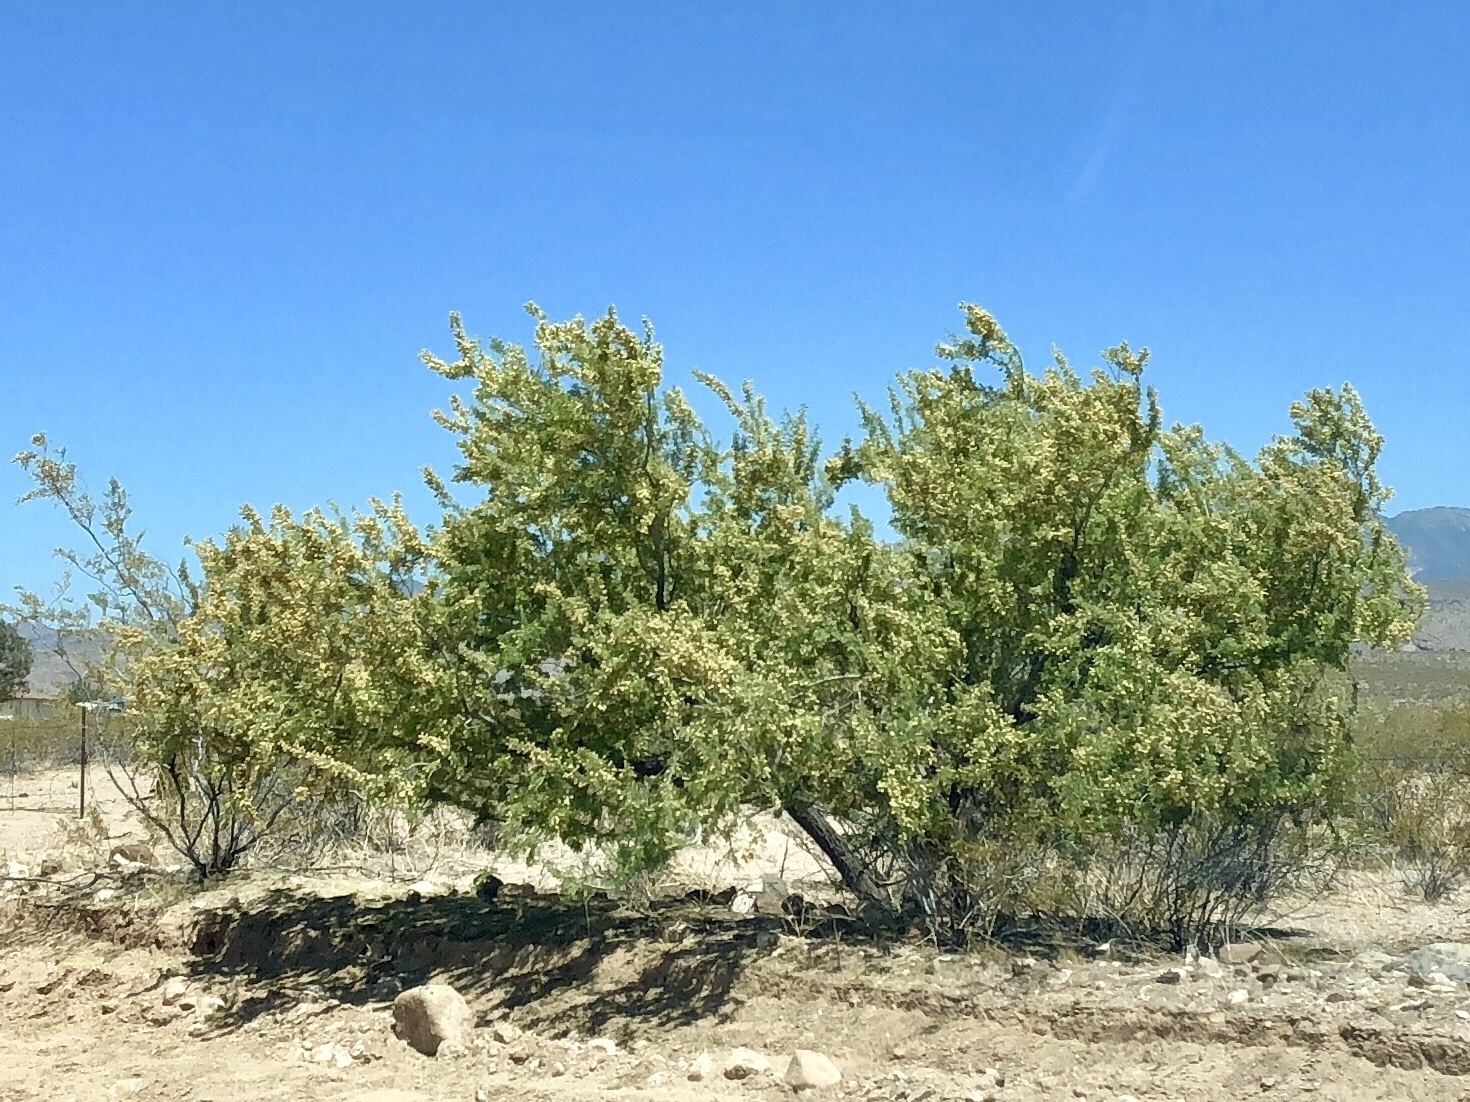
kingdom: Plantae
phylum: Tracheophyta
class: Magnoliopsida
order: Fabales
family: Fabaceae
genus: Senegalia
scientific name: Senegalia greggii
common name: Texas-mimosa
